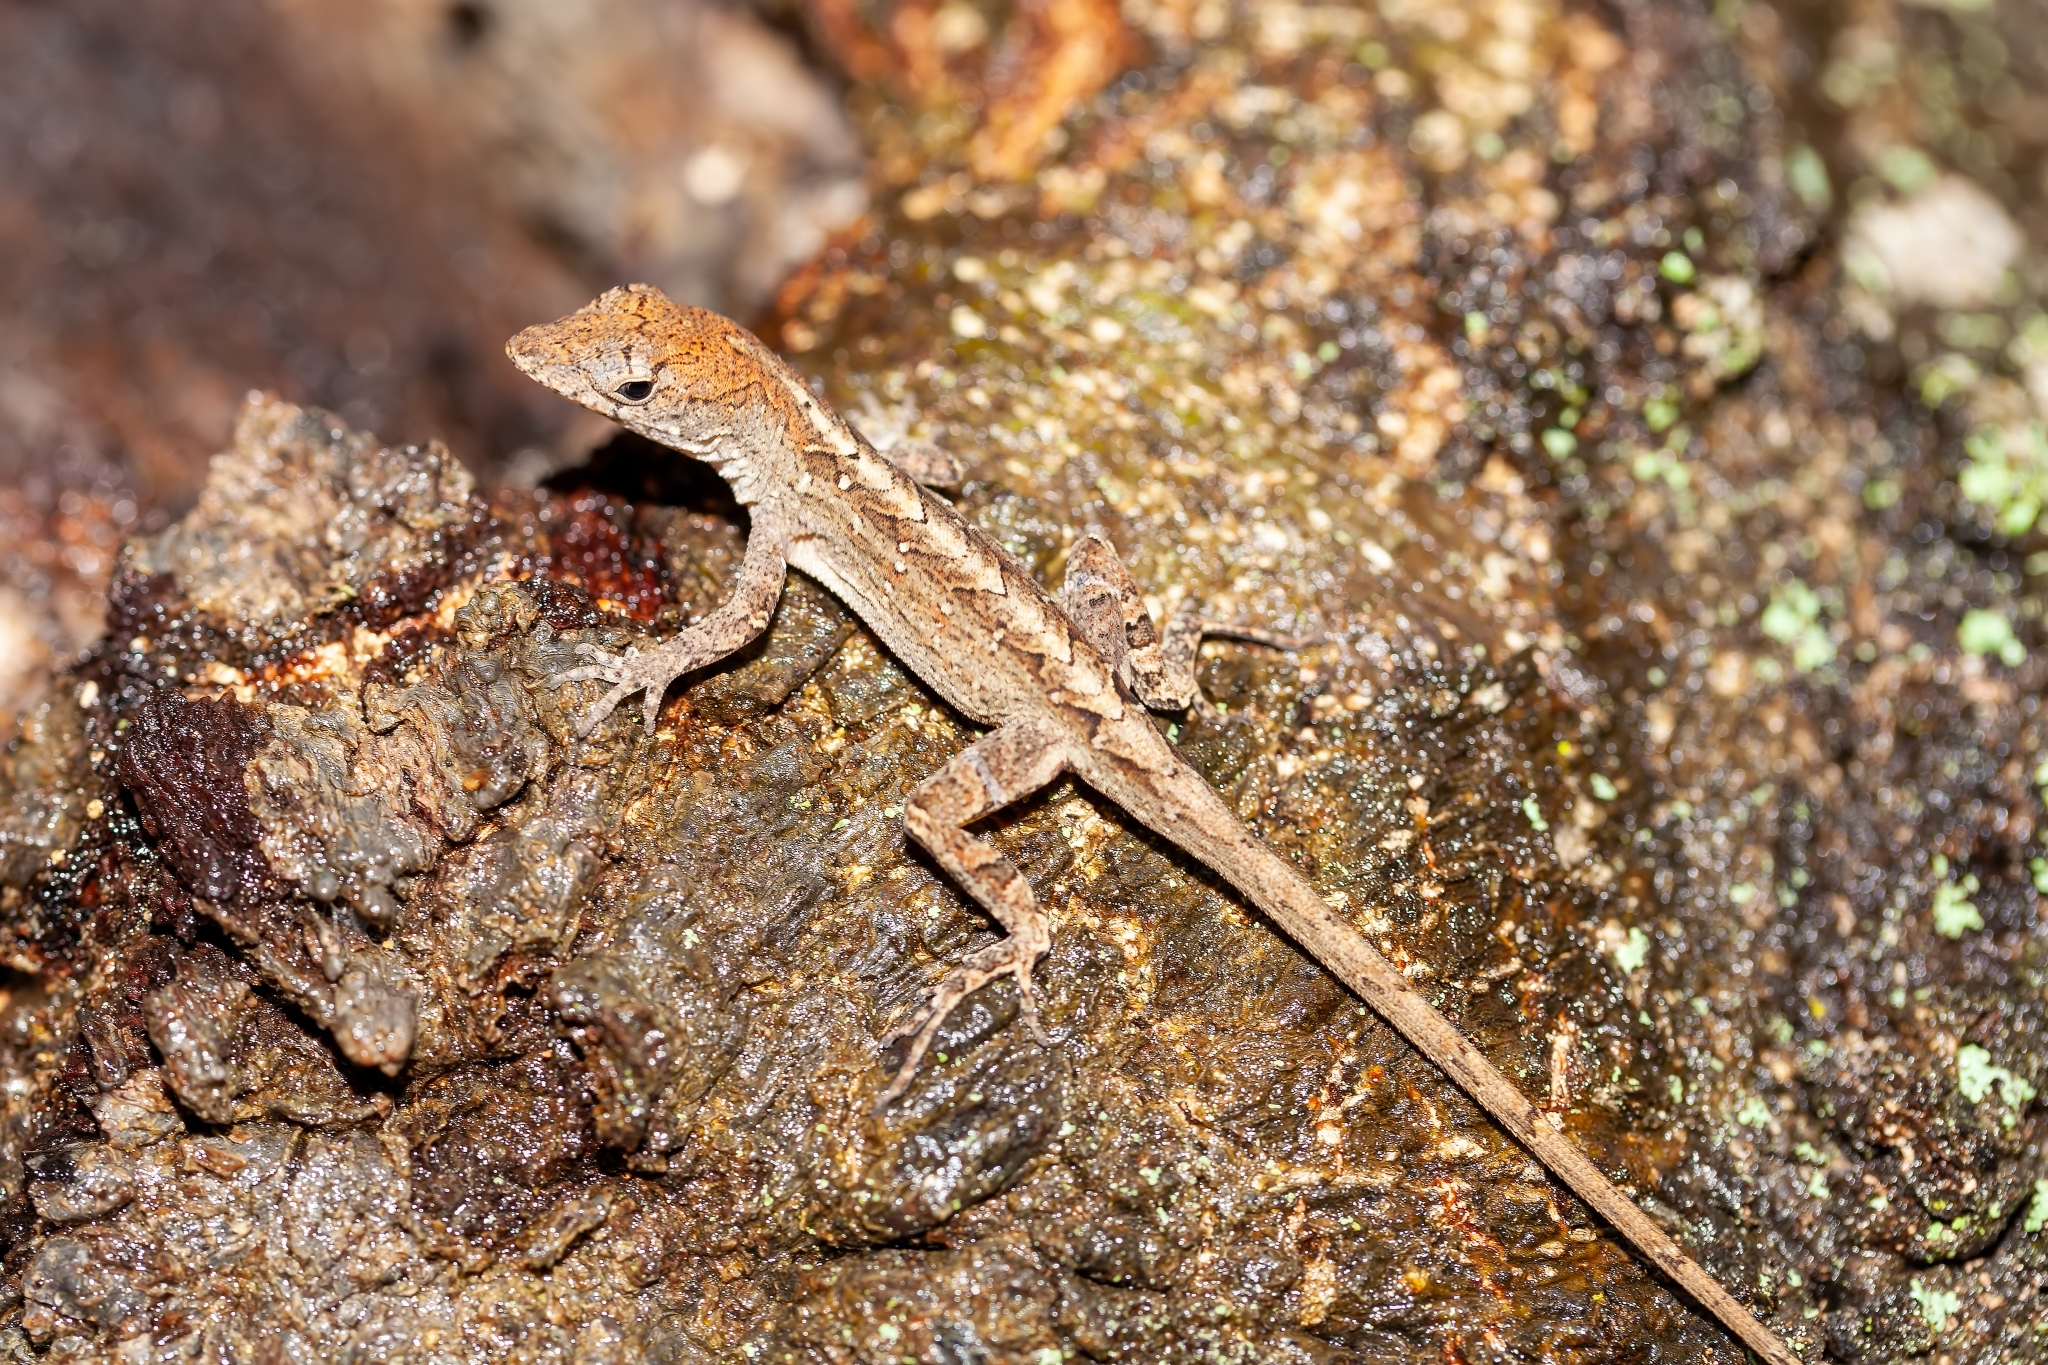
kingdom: Animalia
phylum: Chordata
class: Squamata
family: Dactyloidae
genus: Anolis
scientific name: Anolis sagrei
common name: Brown anole
